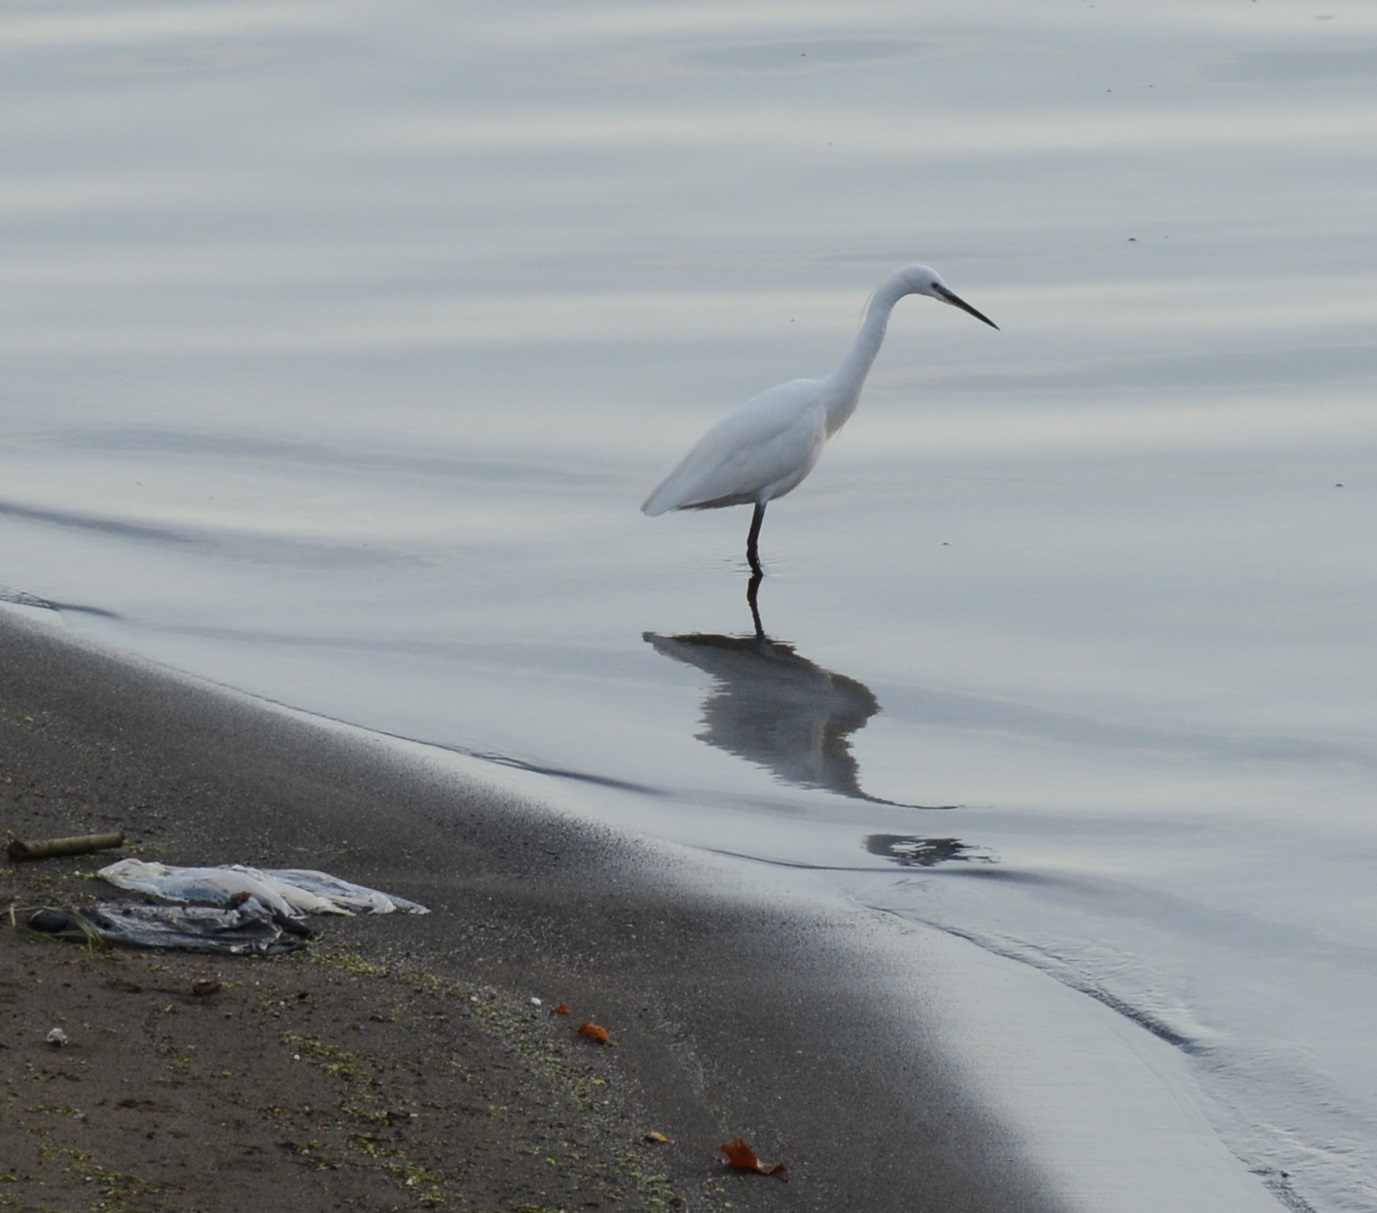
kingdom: Animalia
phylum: Chordata
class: Aves
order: Pelecaniformes
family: Ardeidae
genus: Egretta
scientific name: Egretta garzetta
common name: Little egret
